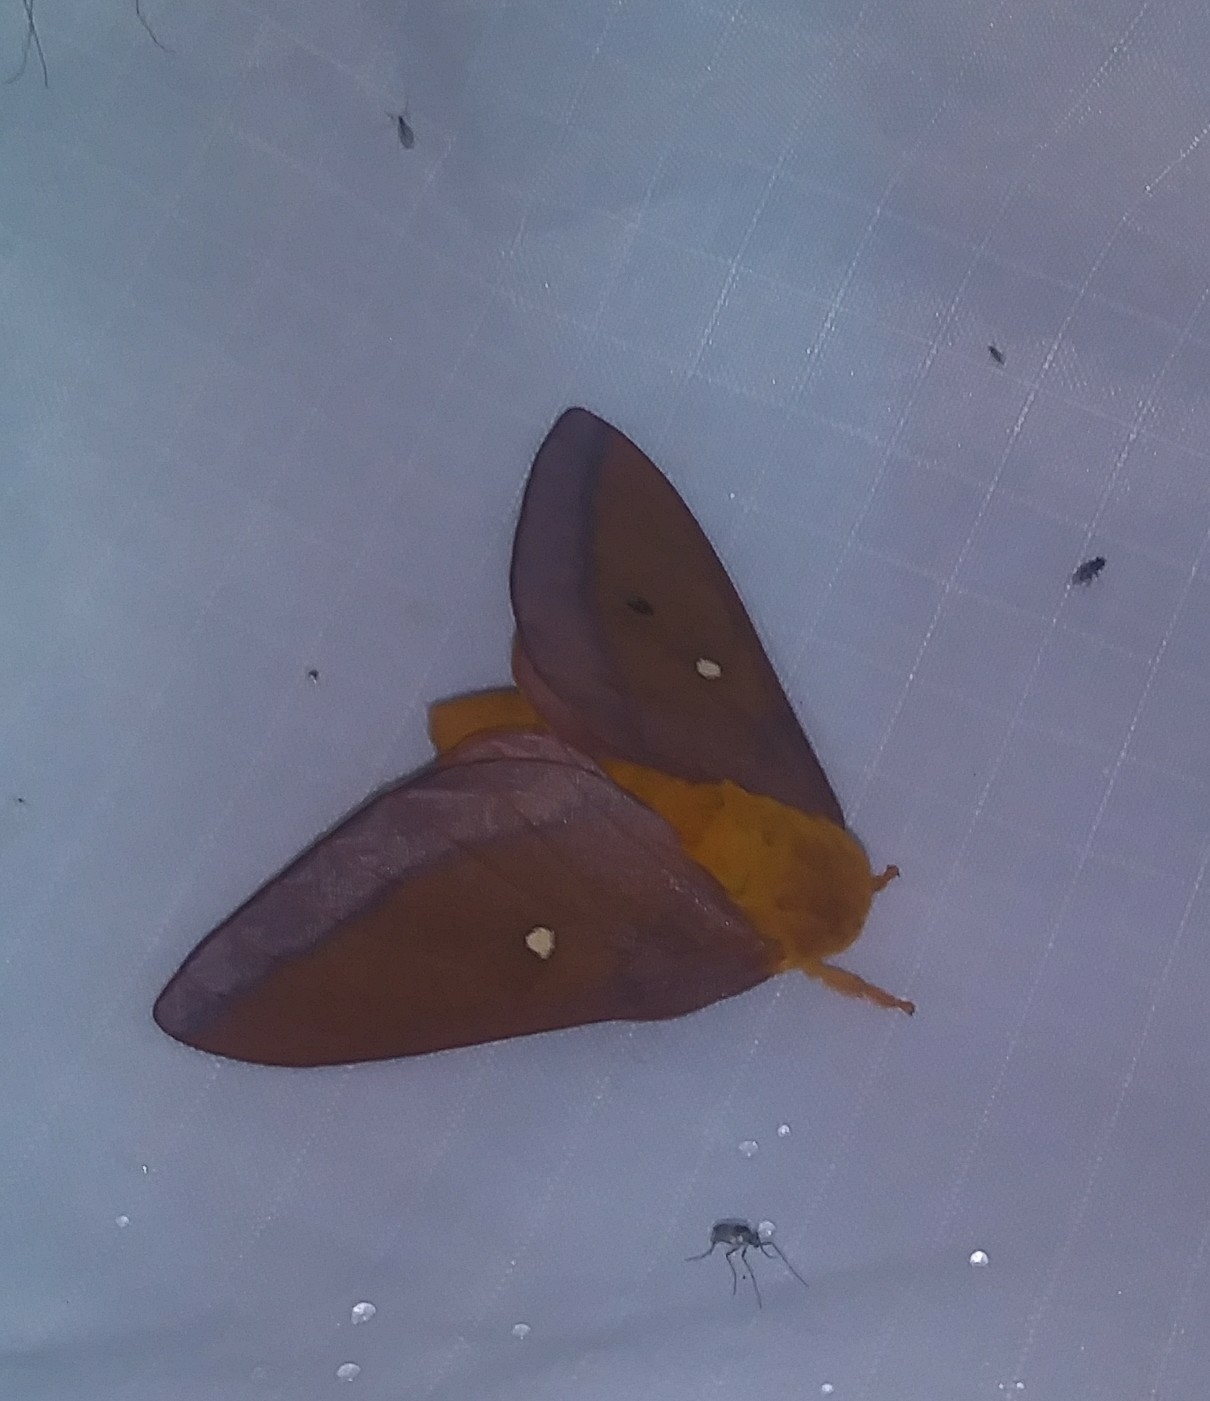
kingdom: Animalia
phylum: Arthropoda
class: Insecta
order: Lepidoptera
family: Saturniidae
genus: Anisota
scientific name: Anisota virginiensis
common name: Pink striped oakworm moth
